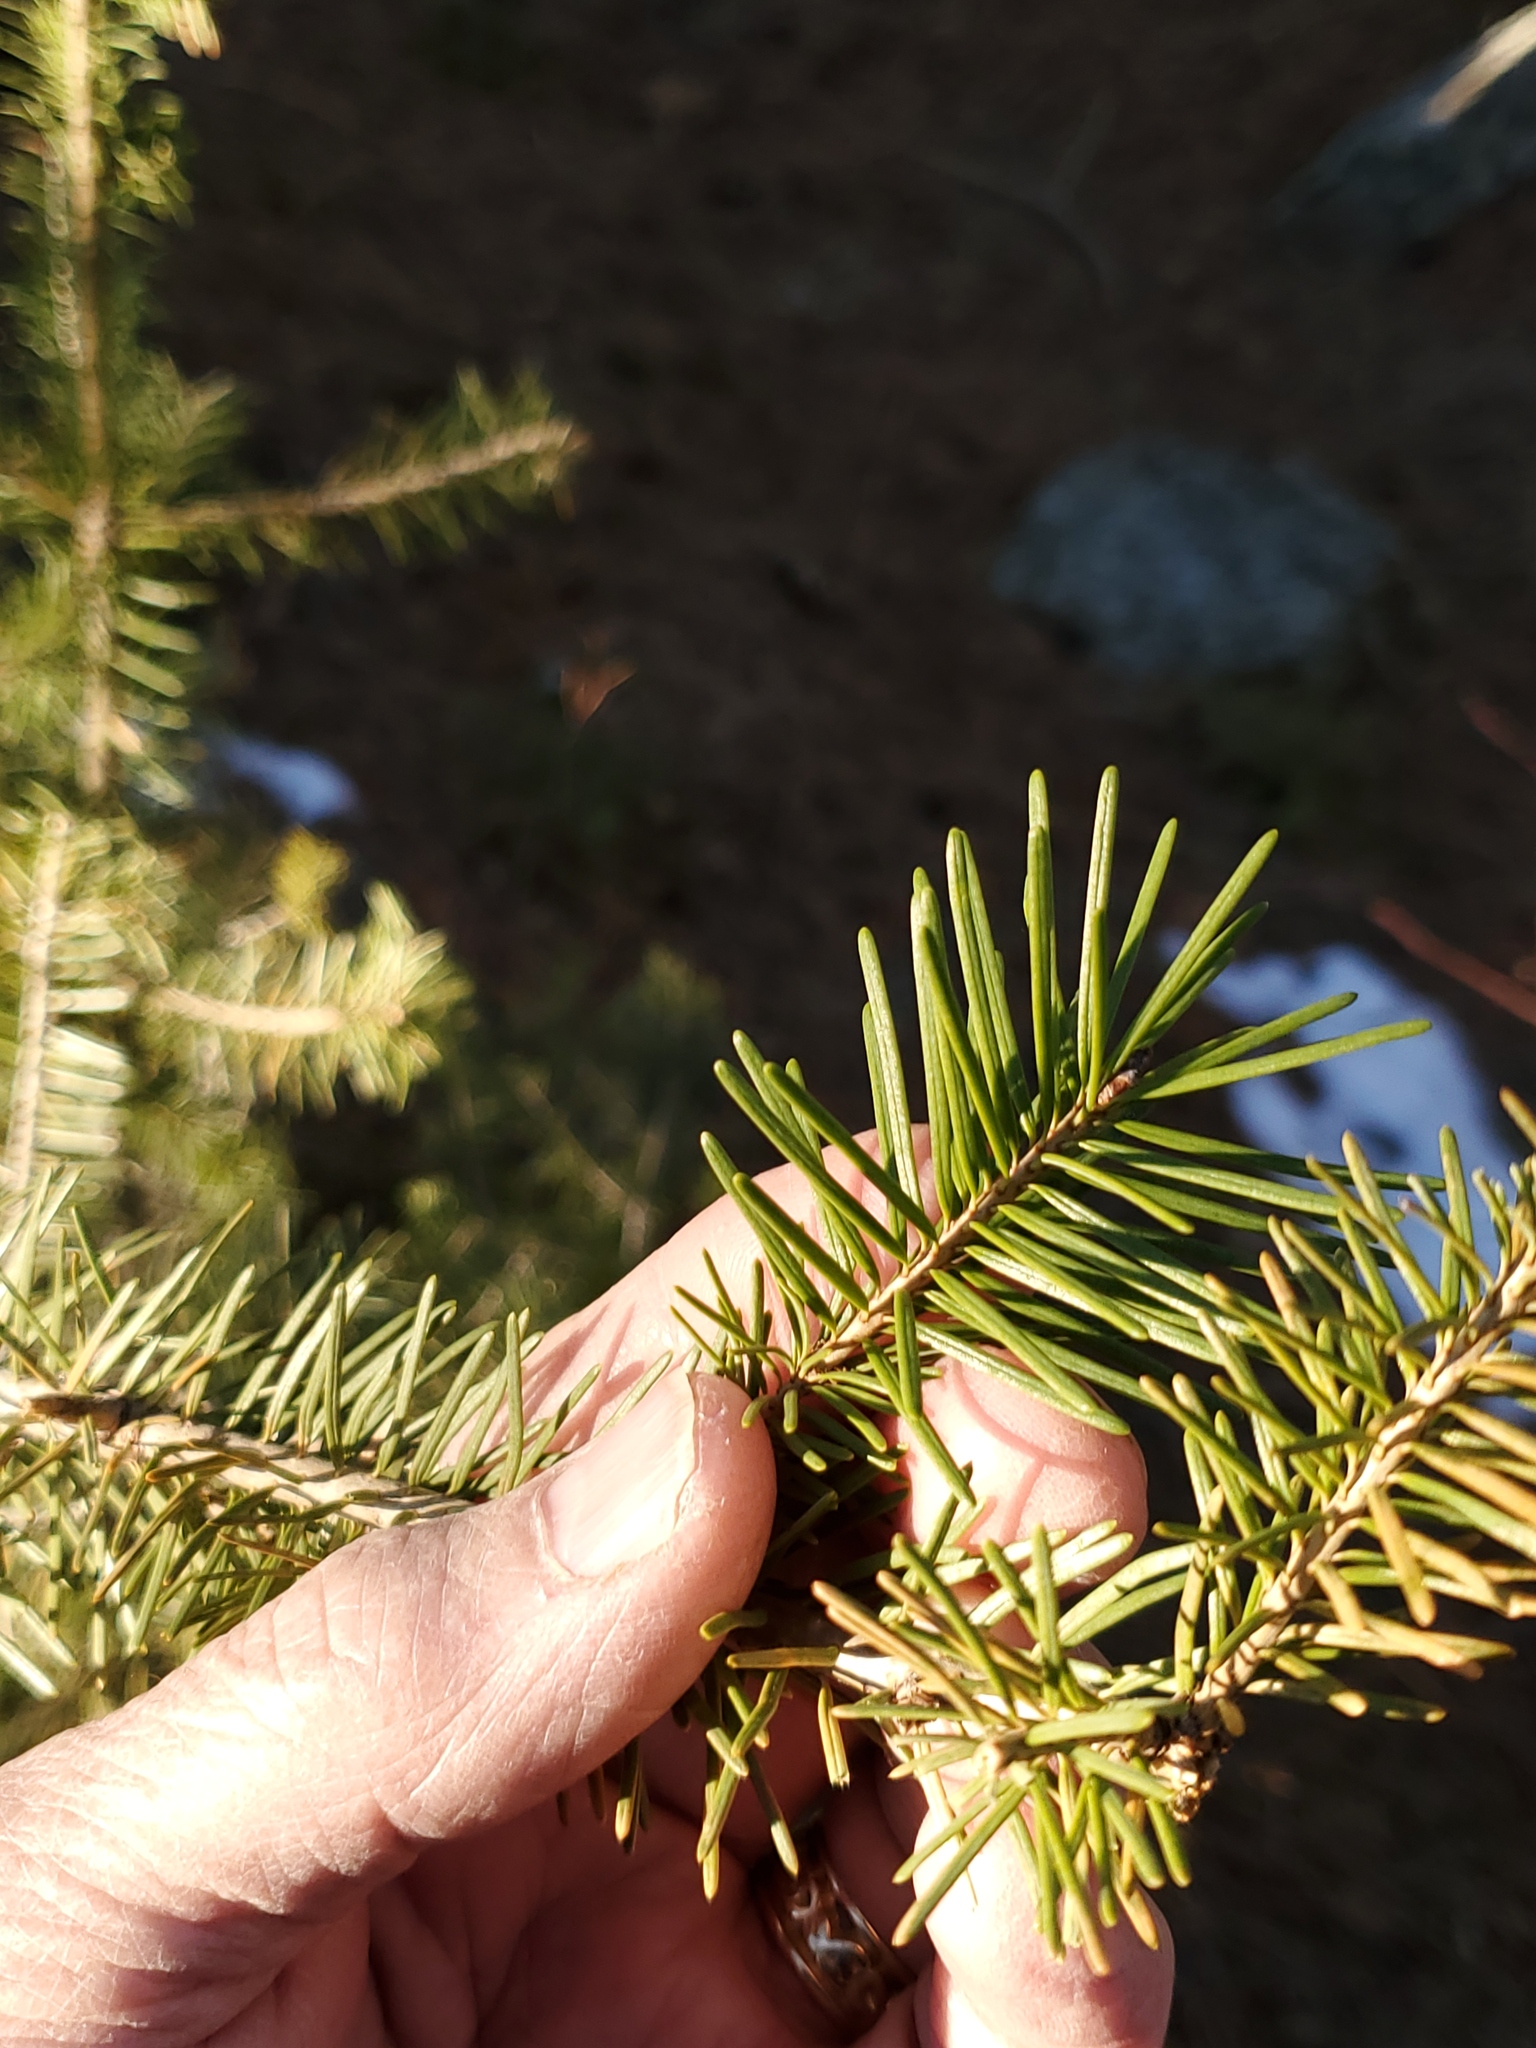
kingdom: Plantae
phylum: Tracheophyta
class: Pinopsida
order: Pinales
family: Pinaceae
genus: Pseudotsuga
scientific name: Pseudotsuga menziesii
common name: Douglas fir
